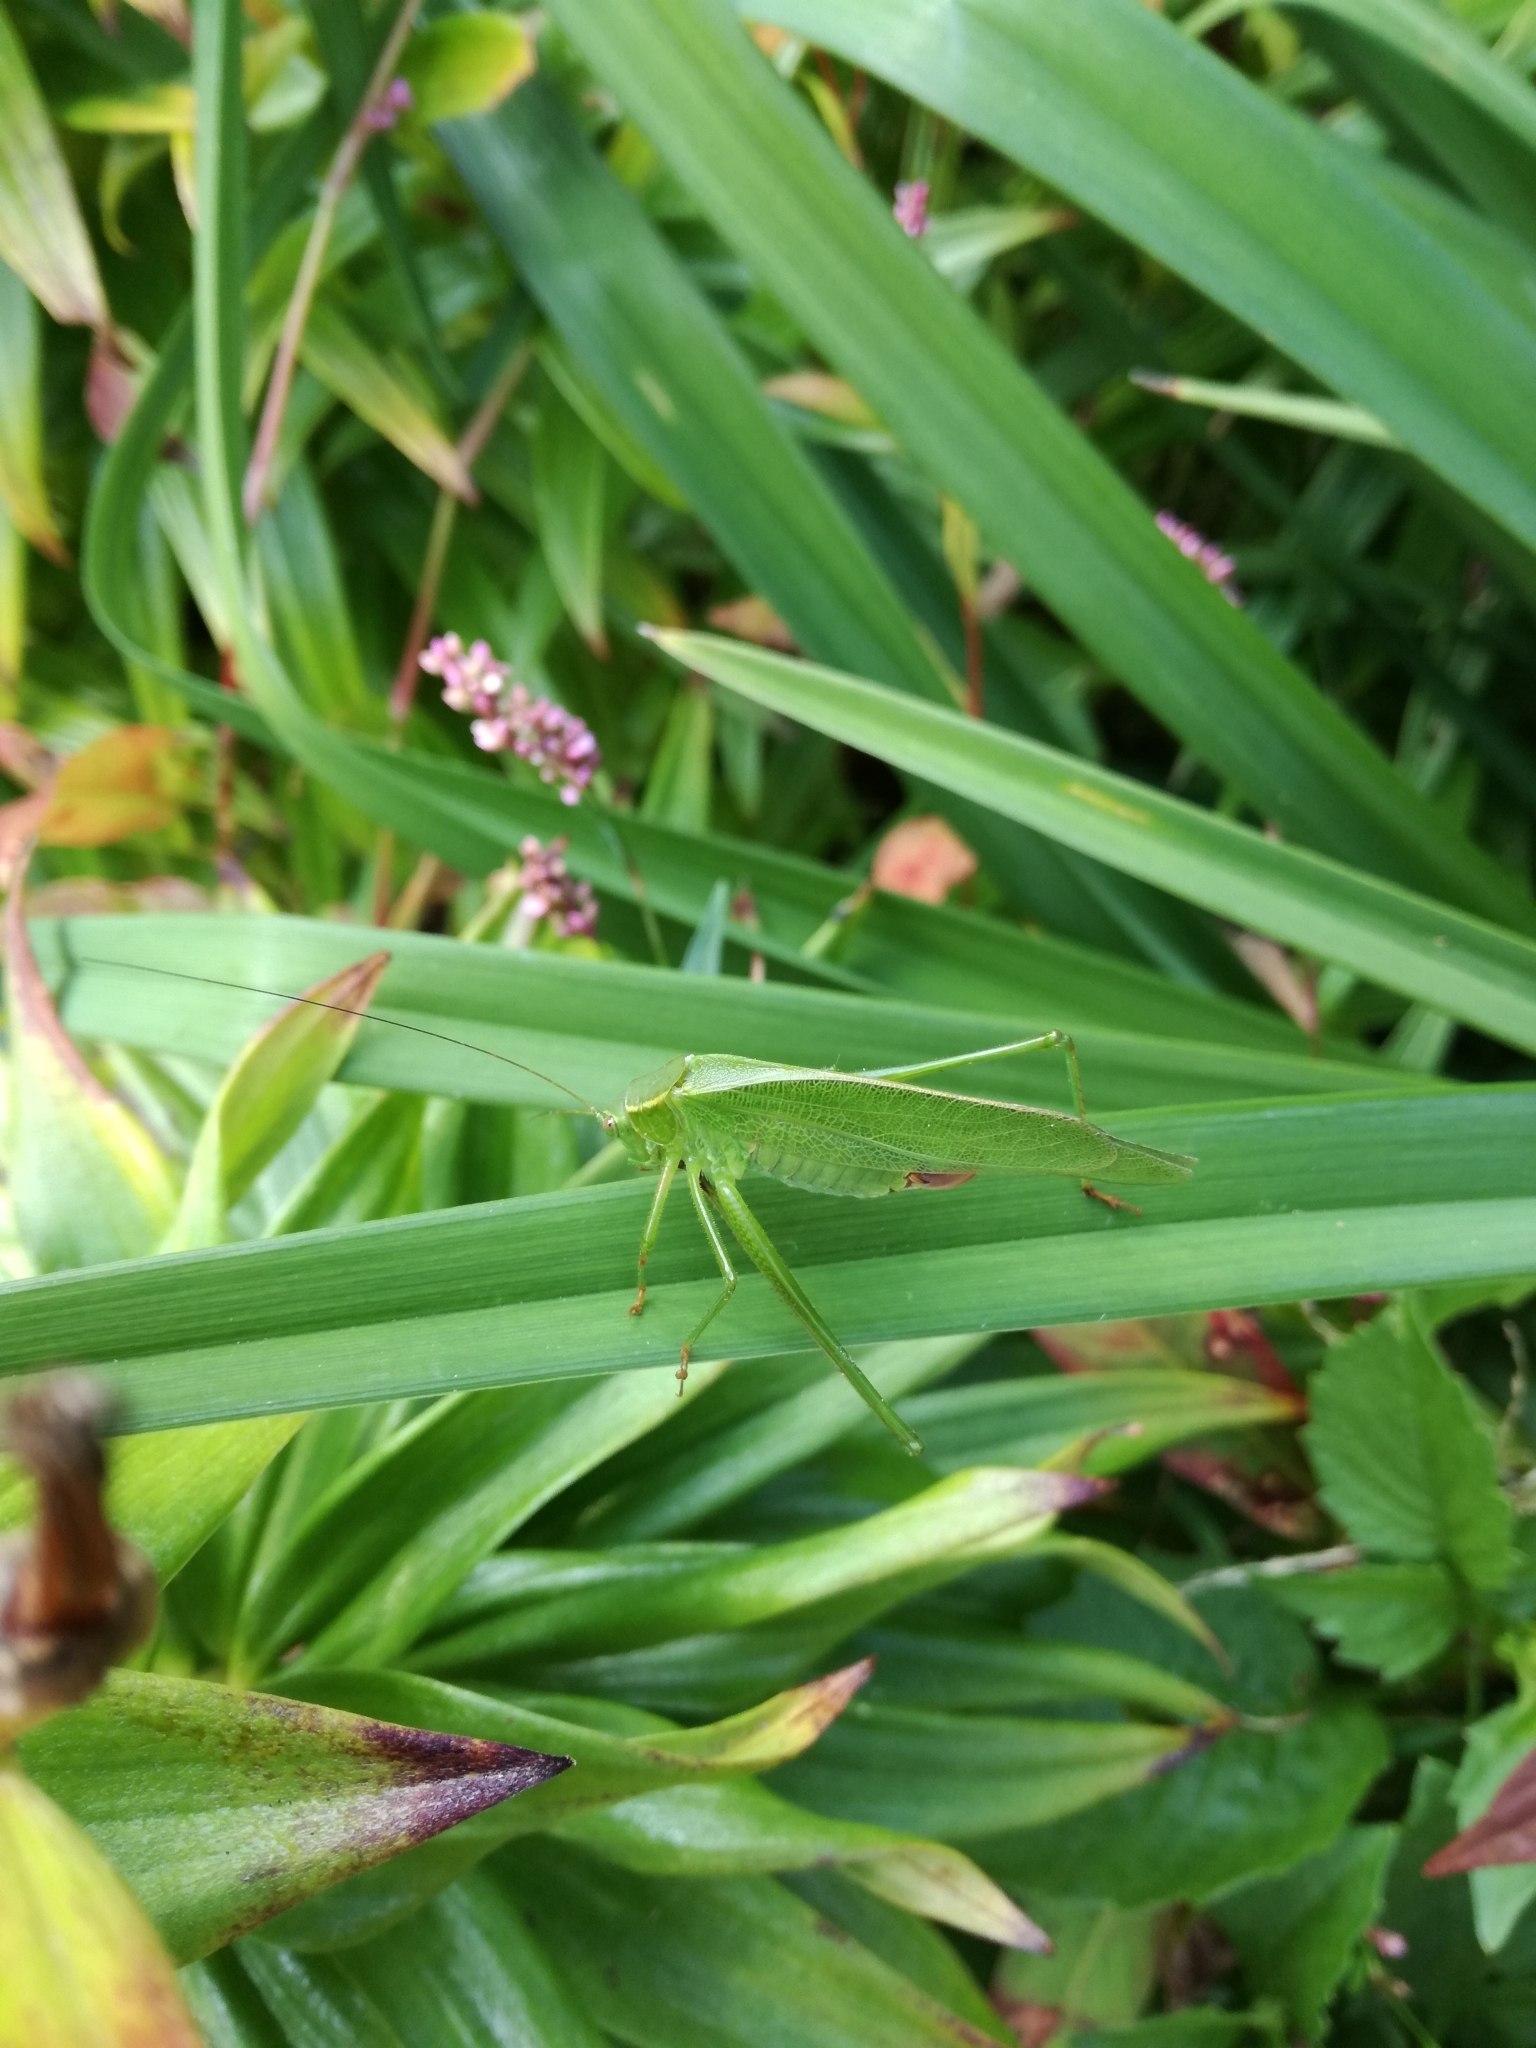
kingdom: Animalia
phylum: Arthropoda
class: Insecta
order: Orthoptera
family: Tettigoniidae
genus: Scudderia
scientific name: Scudderia furcata
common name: Fork-tailed bush katydid
